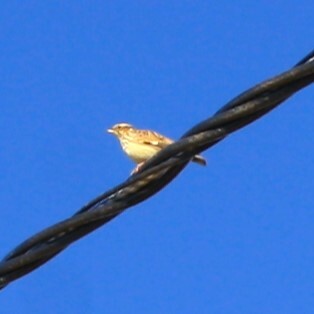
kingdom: Animalia
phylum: Chordata
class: Aves
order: Passeriformes
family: Alaudidae
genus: Lullula
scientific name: Lullula arborea
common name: Woodlark
